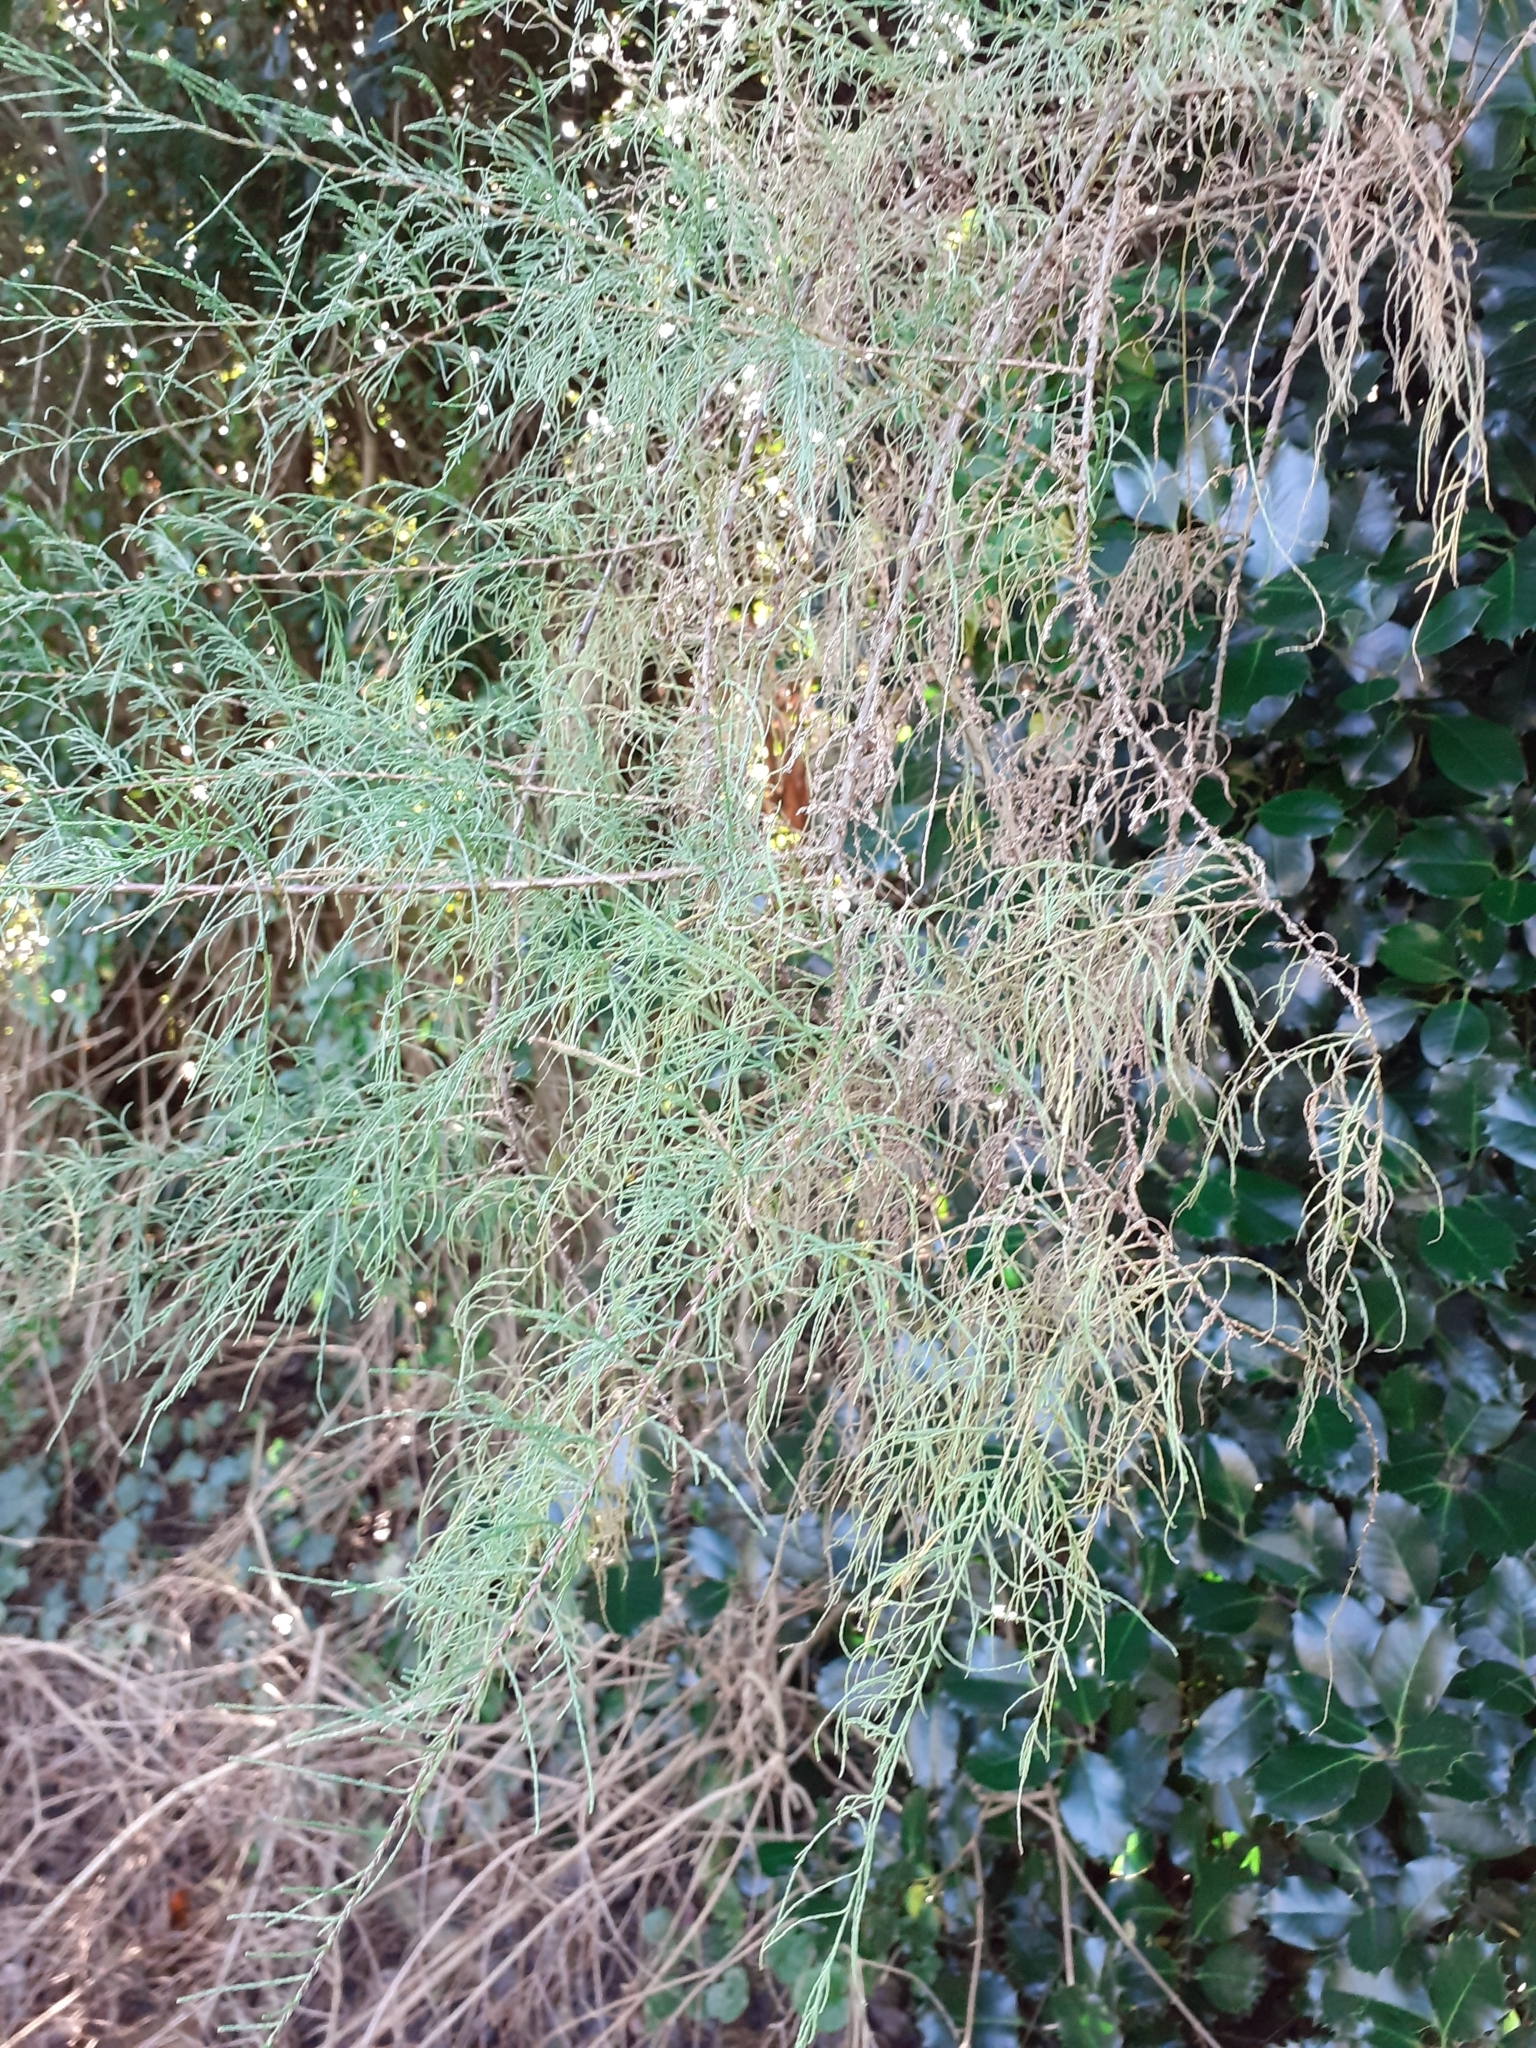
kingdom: Plantae
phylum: Tracheophyta
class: Magnoliopsida
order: Caryophyllales
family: Tamaricaceae
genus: Tamarix
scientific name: Tamarix ramosissima
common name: Pink tamarisk
